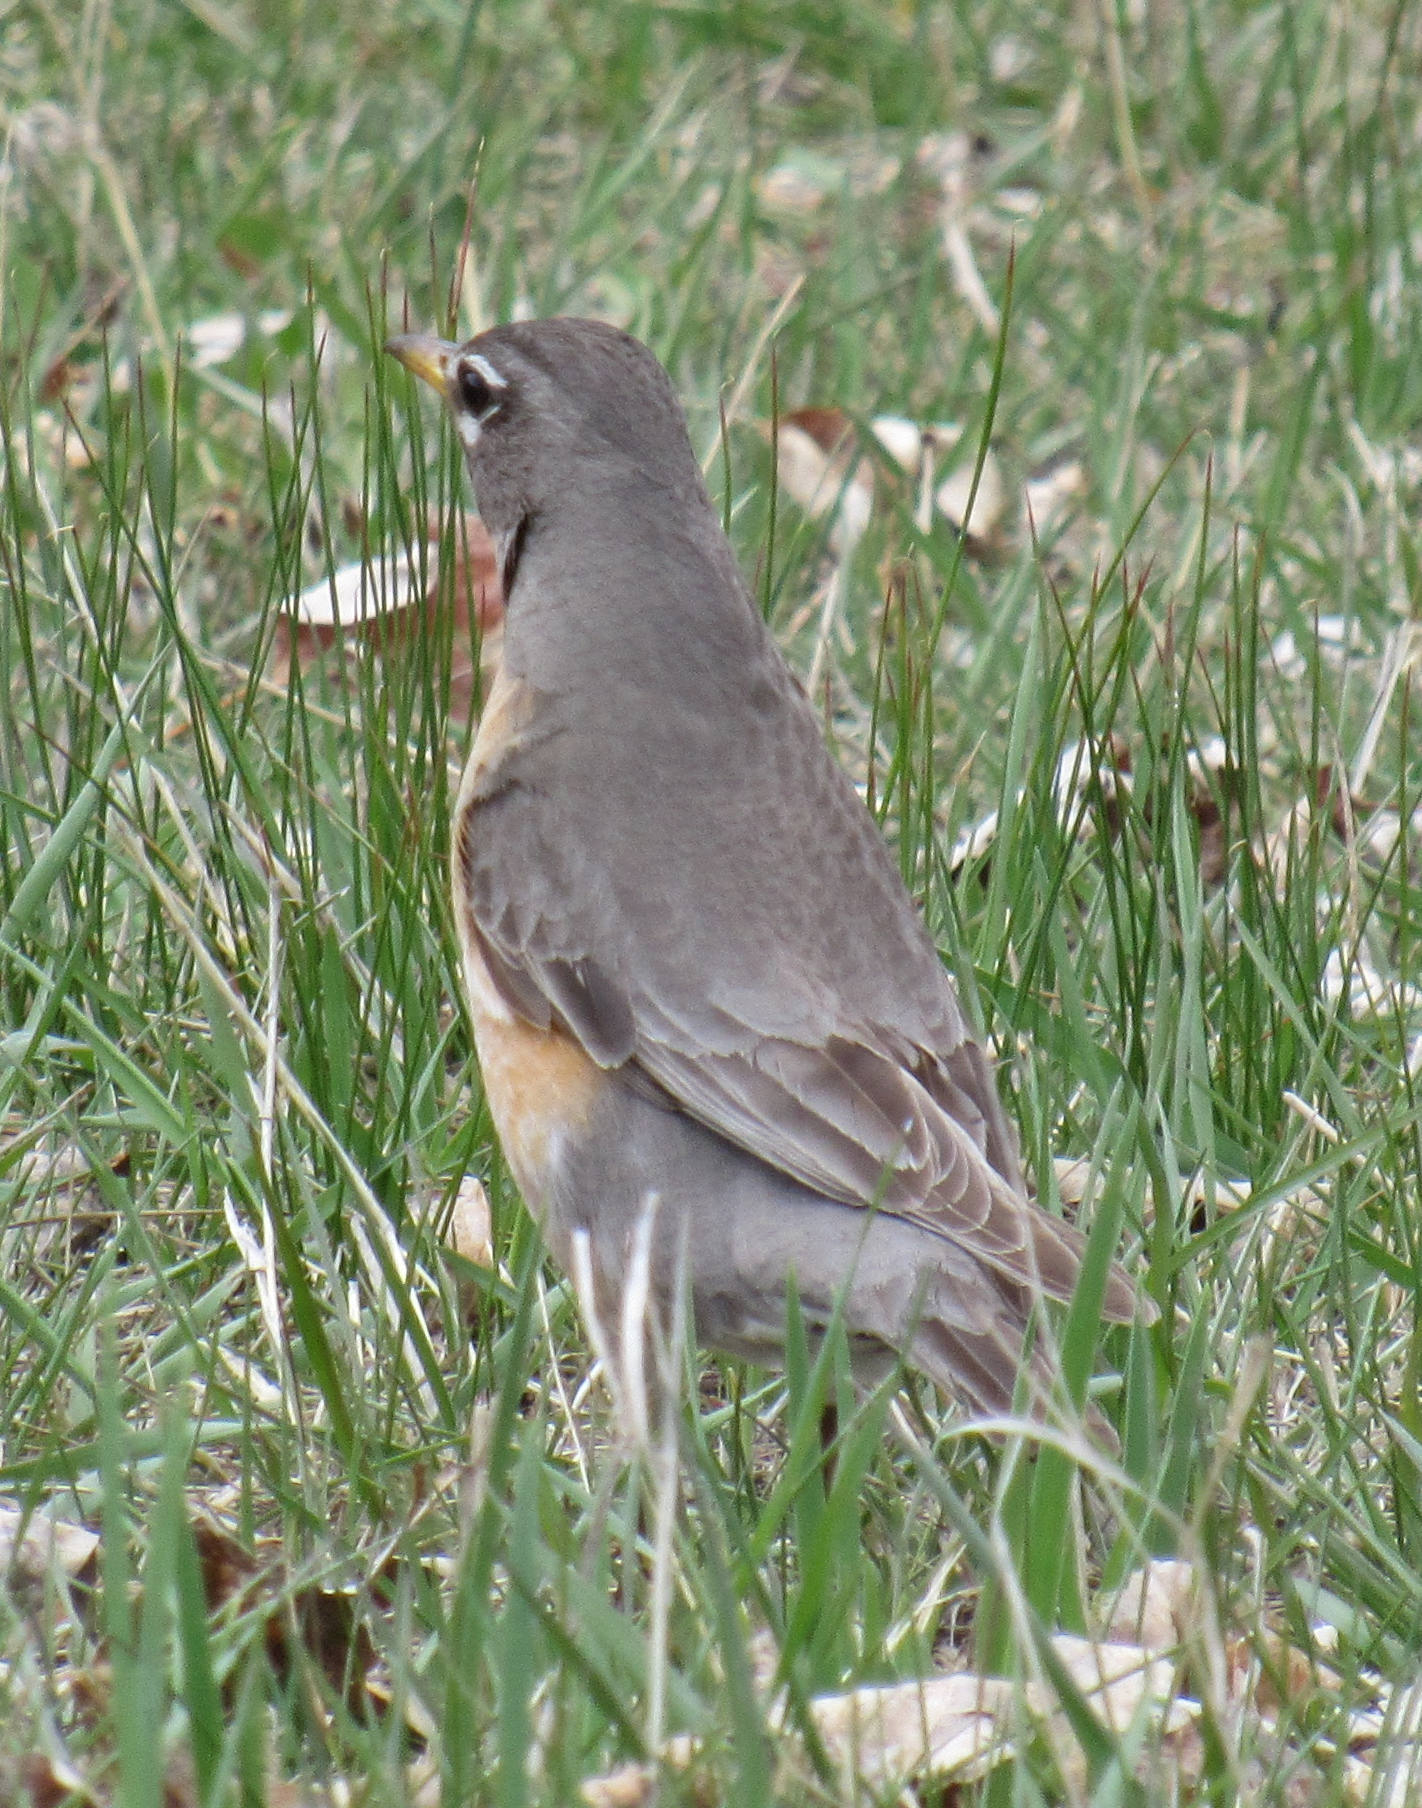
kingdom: Animalia
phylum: Chordata
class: Aves
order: Passeriformes
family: Turdidae
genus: Turdus
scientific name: Turdus migratorius
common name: American robin
